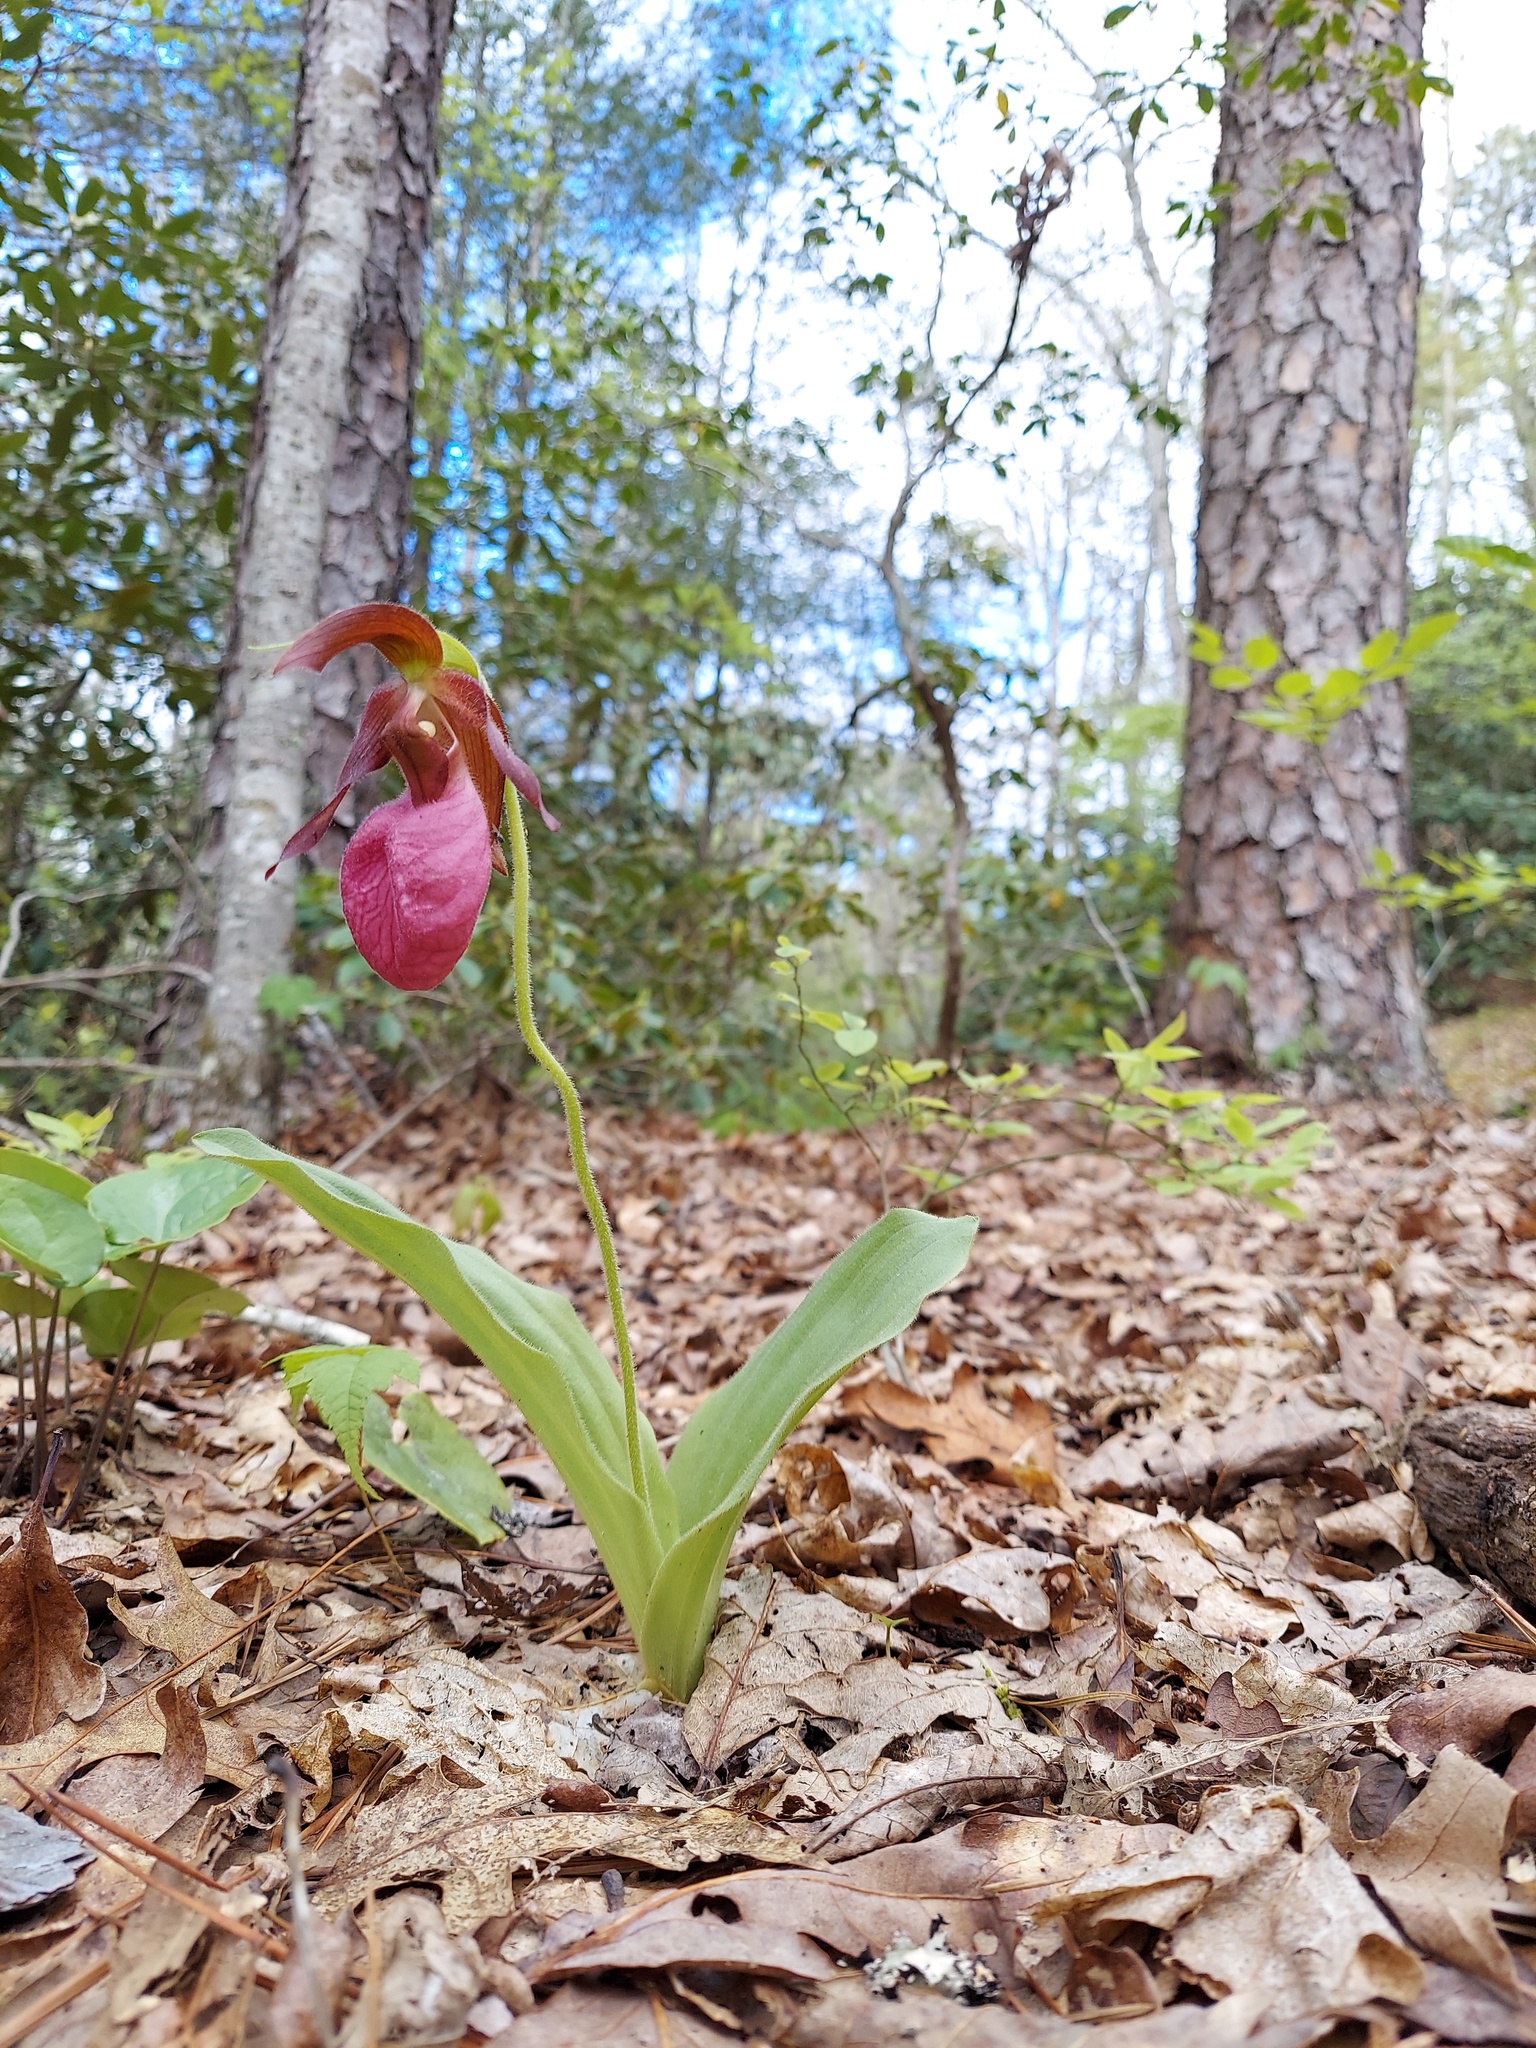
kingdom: Plantae
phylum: Tracheophyta
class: Liliopsida
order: Asparagales
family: Orchidaceae
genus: Cypripedium
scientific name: Cypripedium acaule
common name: Pink lady's-slipper
